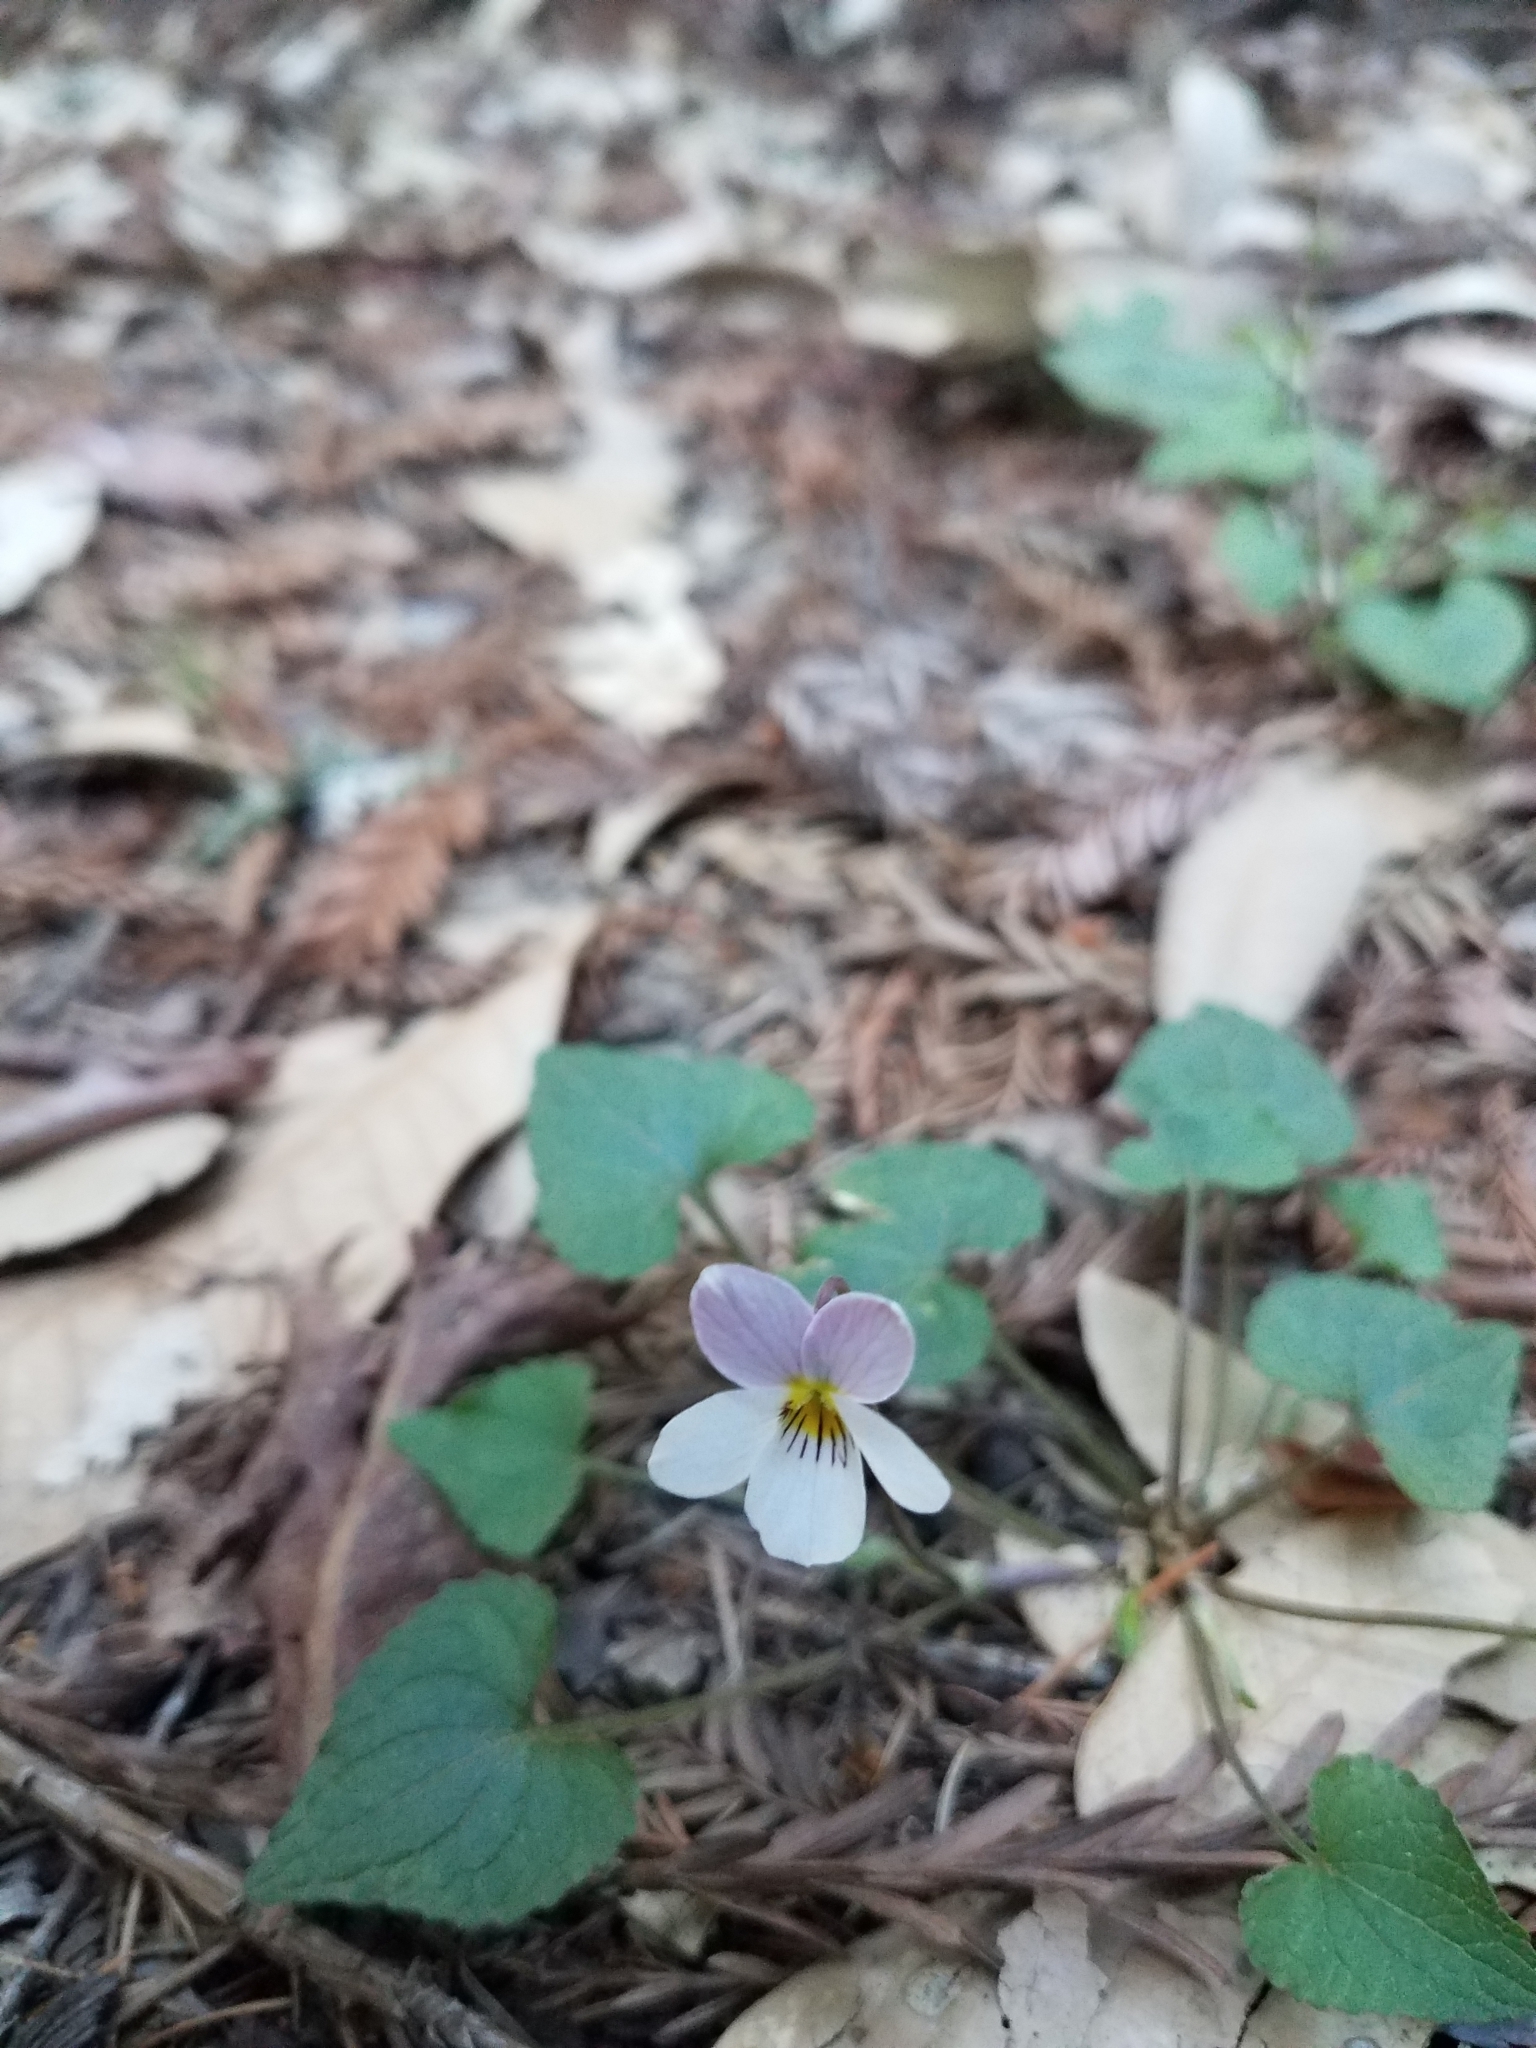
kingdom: Plantae
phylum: Tracheophyta
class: Magnoliopsida
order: Malpighiales
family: Violaceae
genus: Viola
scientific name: Viola ocellata
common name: Western heart's ease
